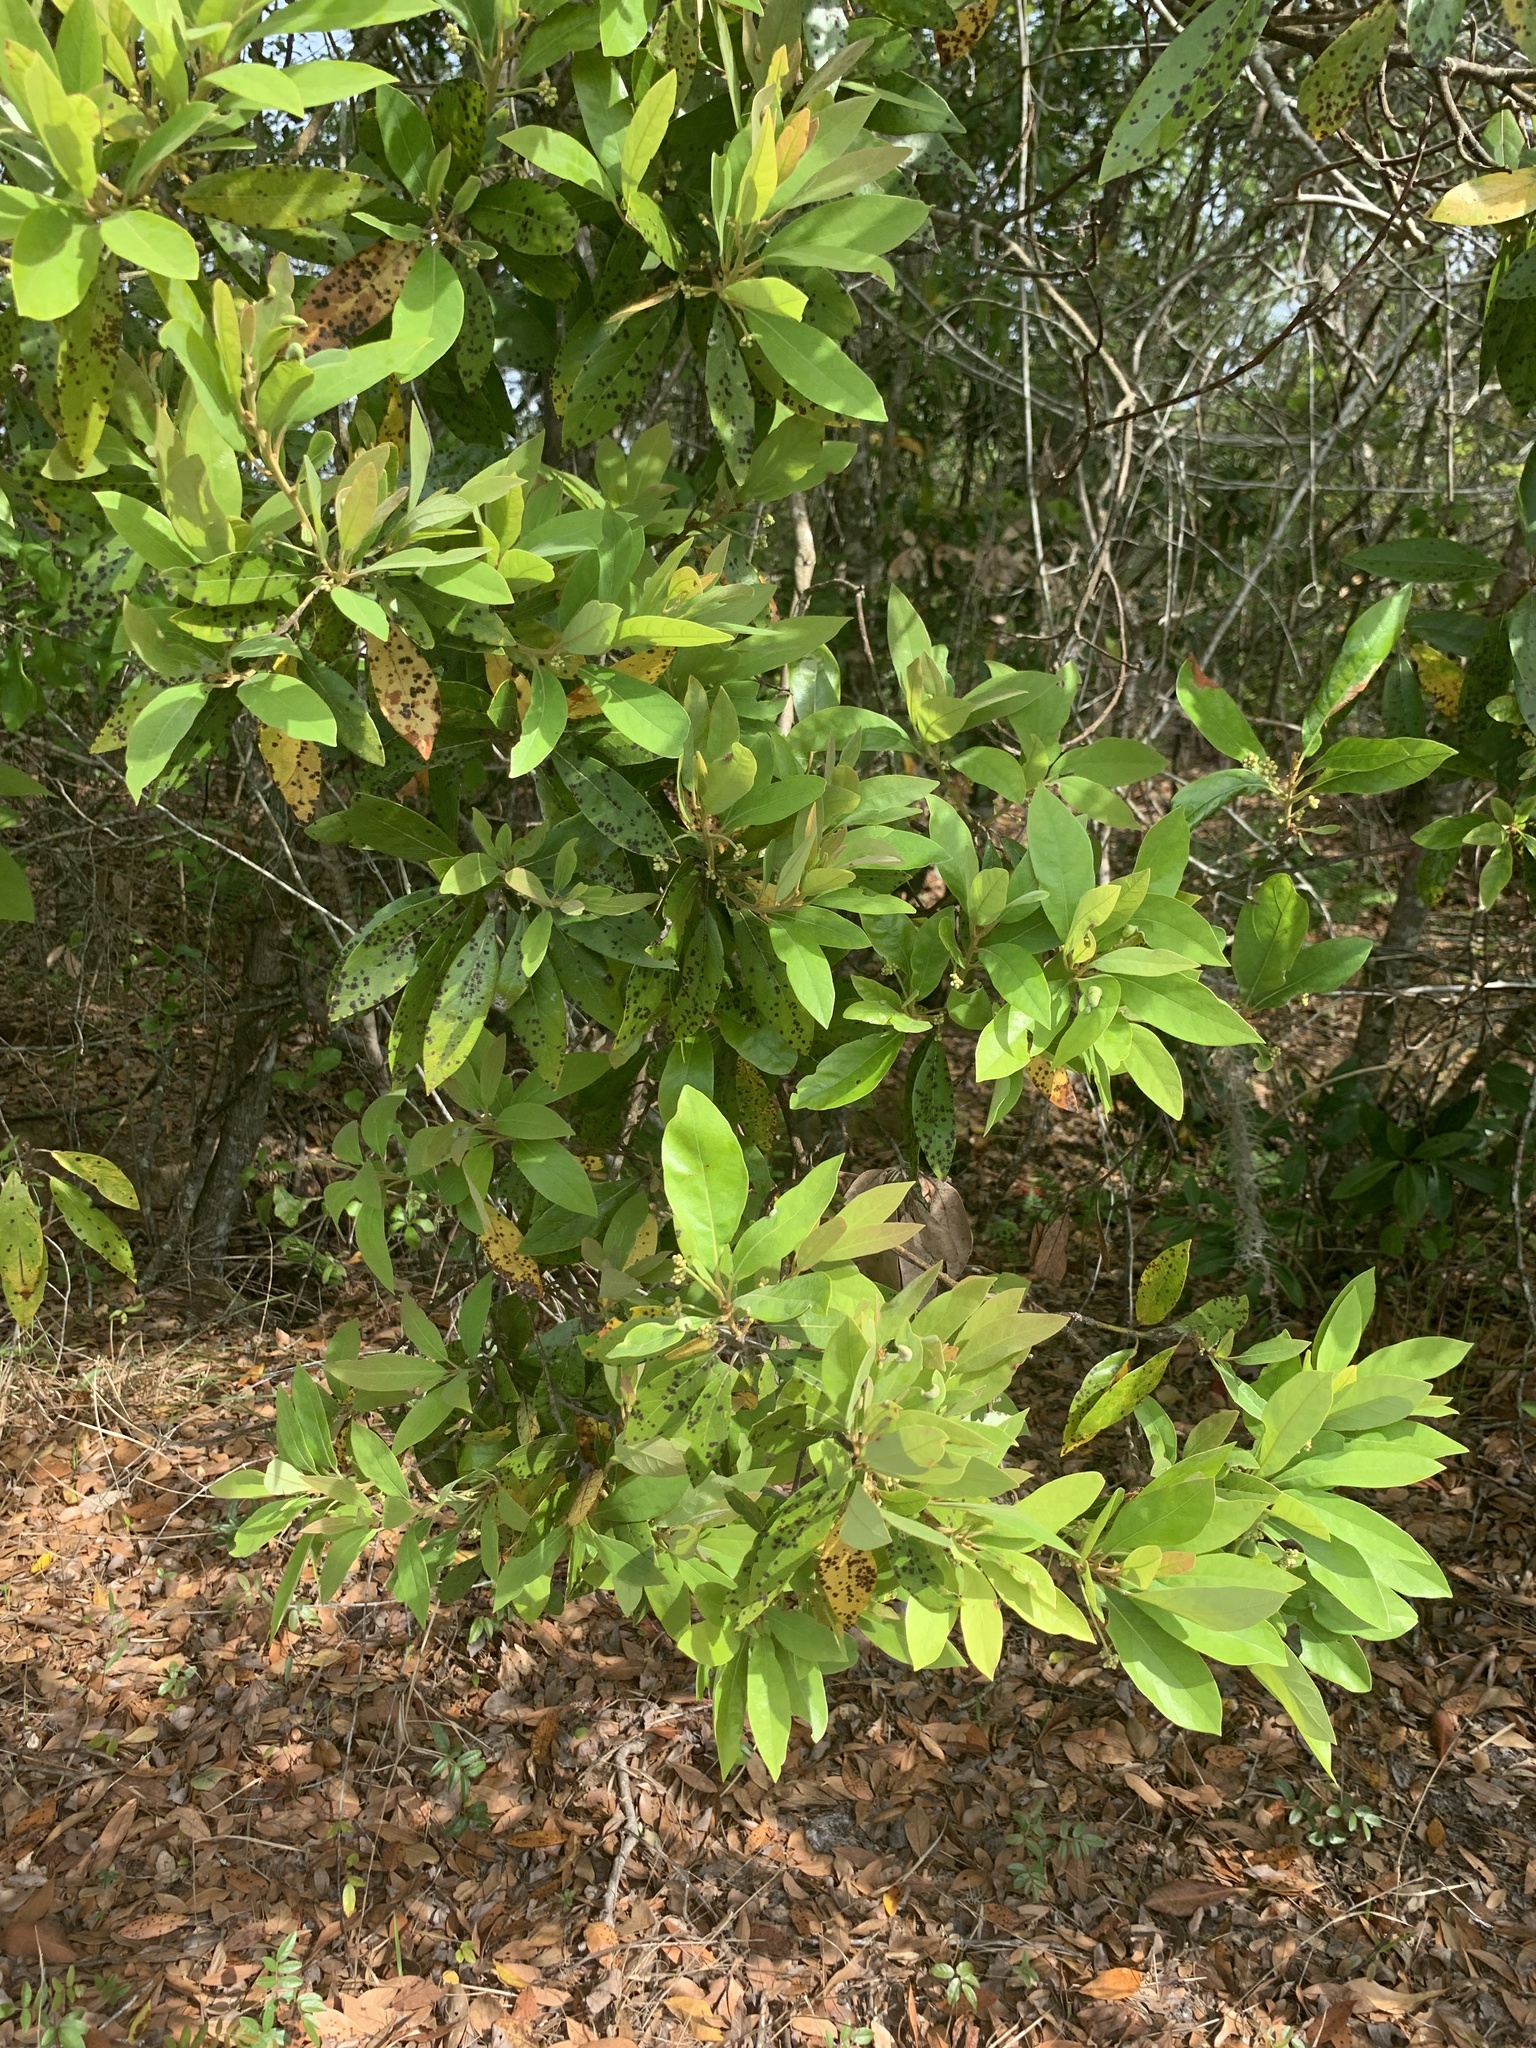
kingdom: Plantae
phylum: Tracheophyta
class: Magnoliopsida
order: Laurales
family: Lauraceae
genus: Persea
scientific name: Persea borbonia
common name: Redbay
